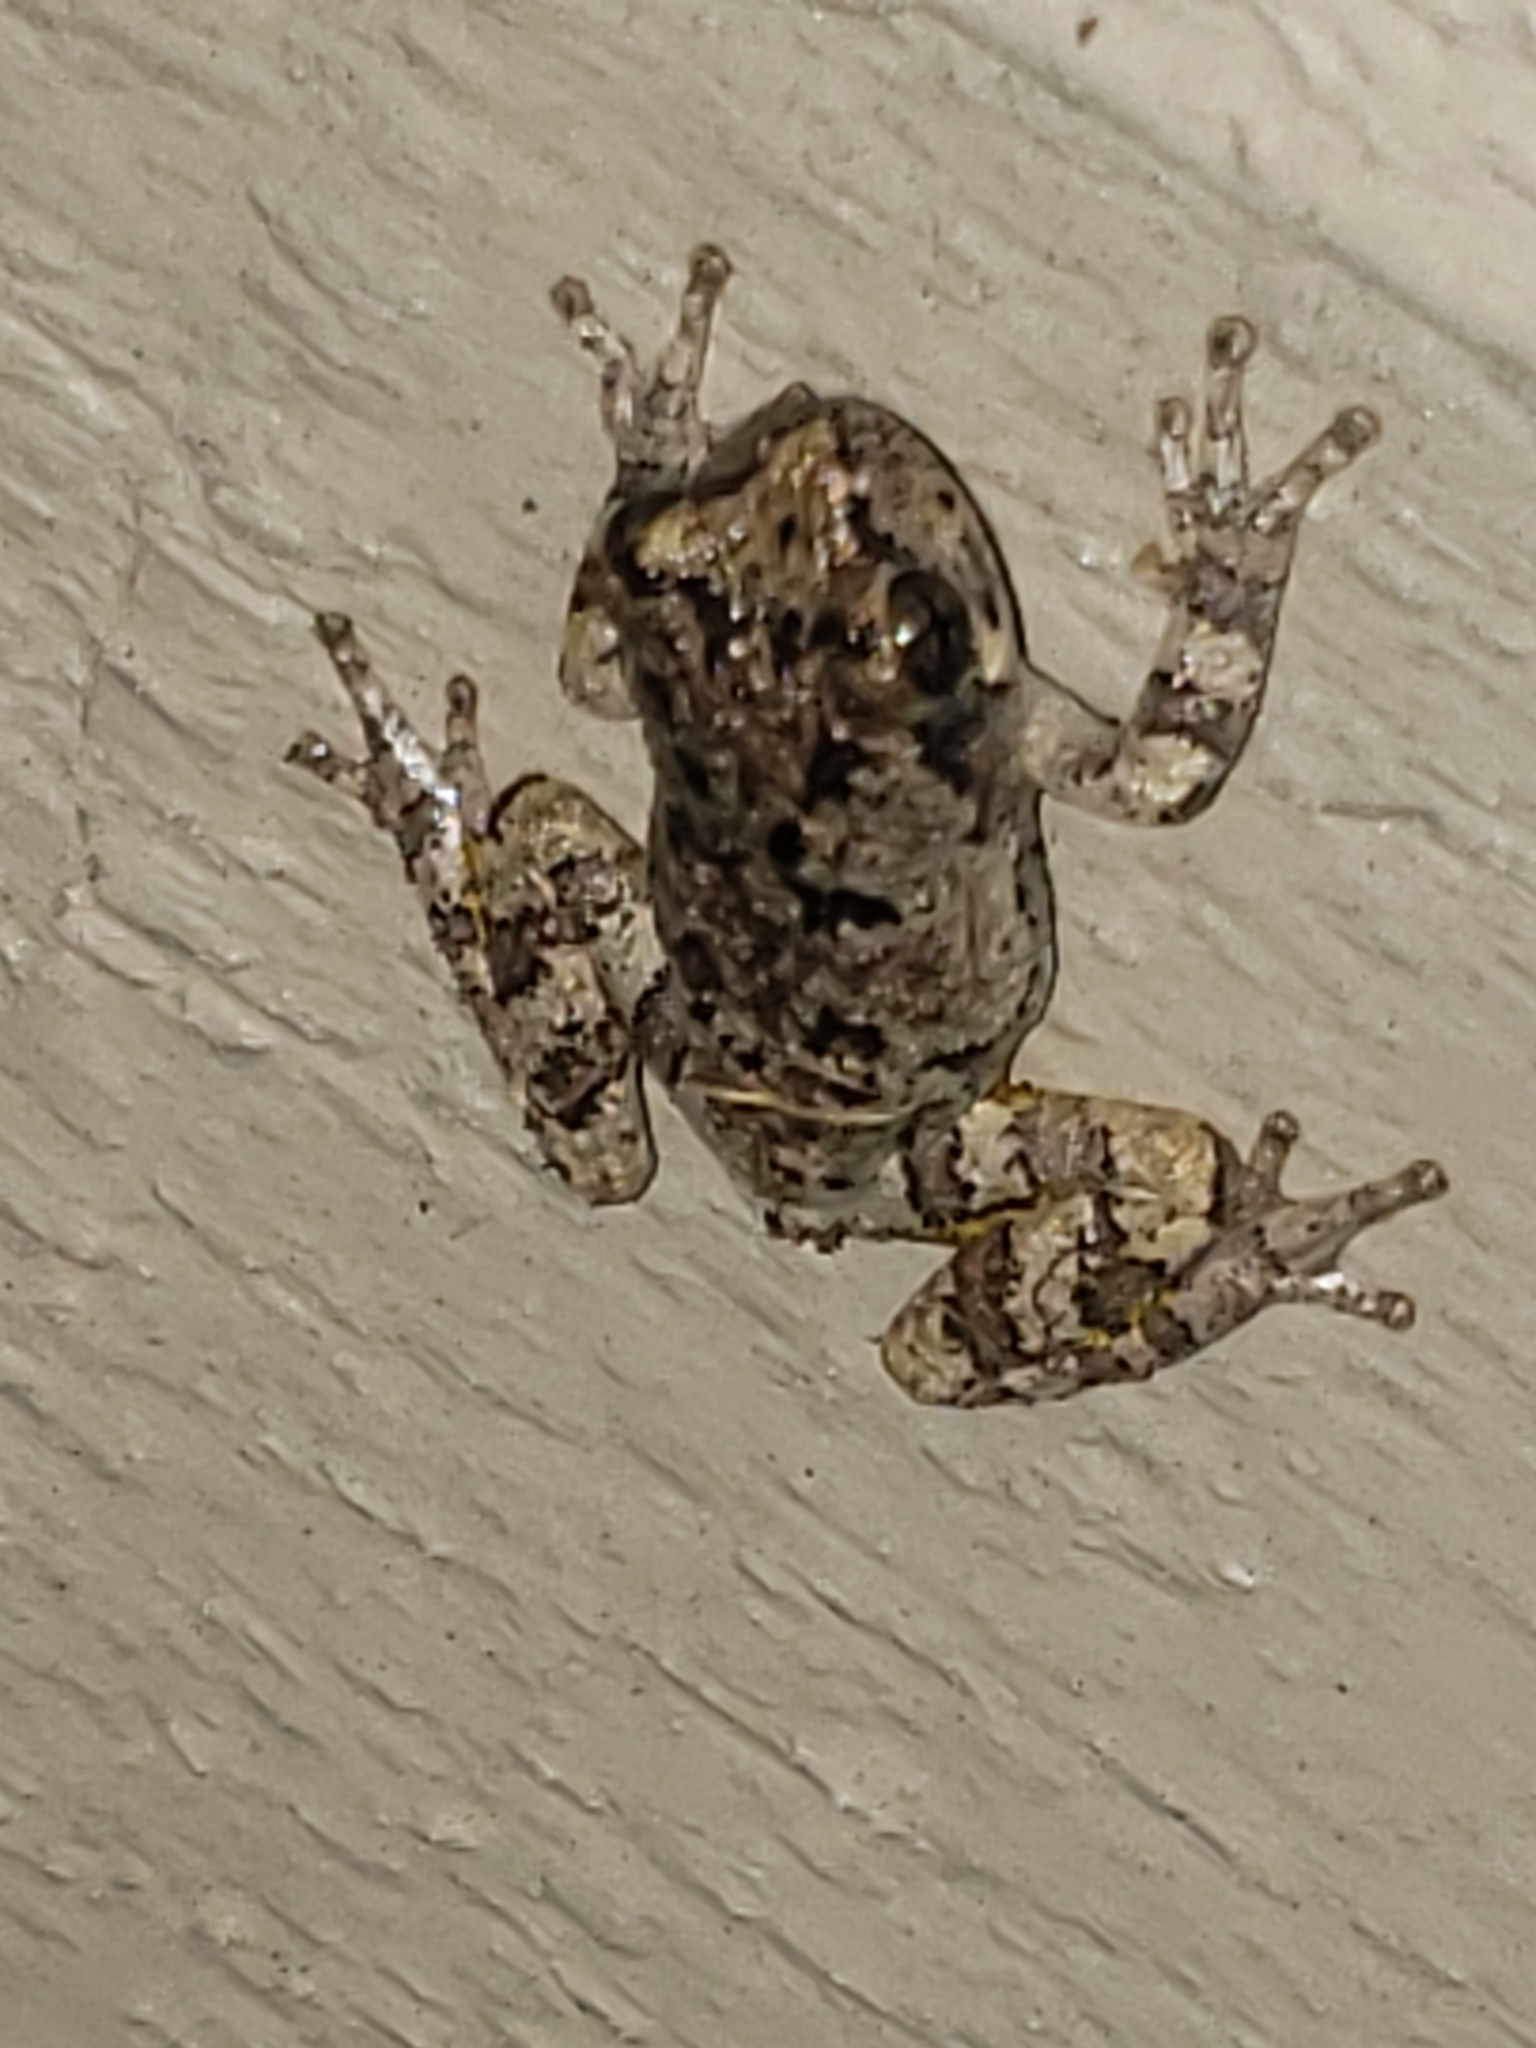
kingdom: Animalia
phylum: Chordata
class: Amphibia
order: Anura
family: Hylidae
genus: Hyla
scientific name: Hyla
